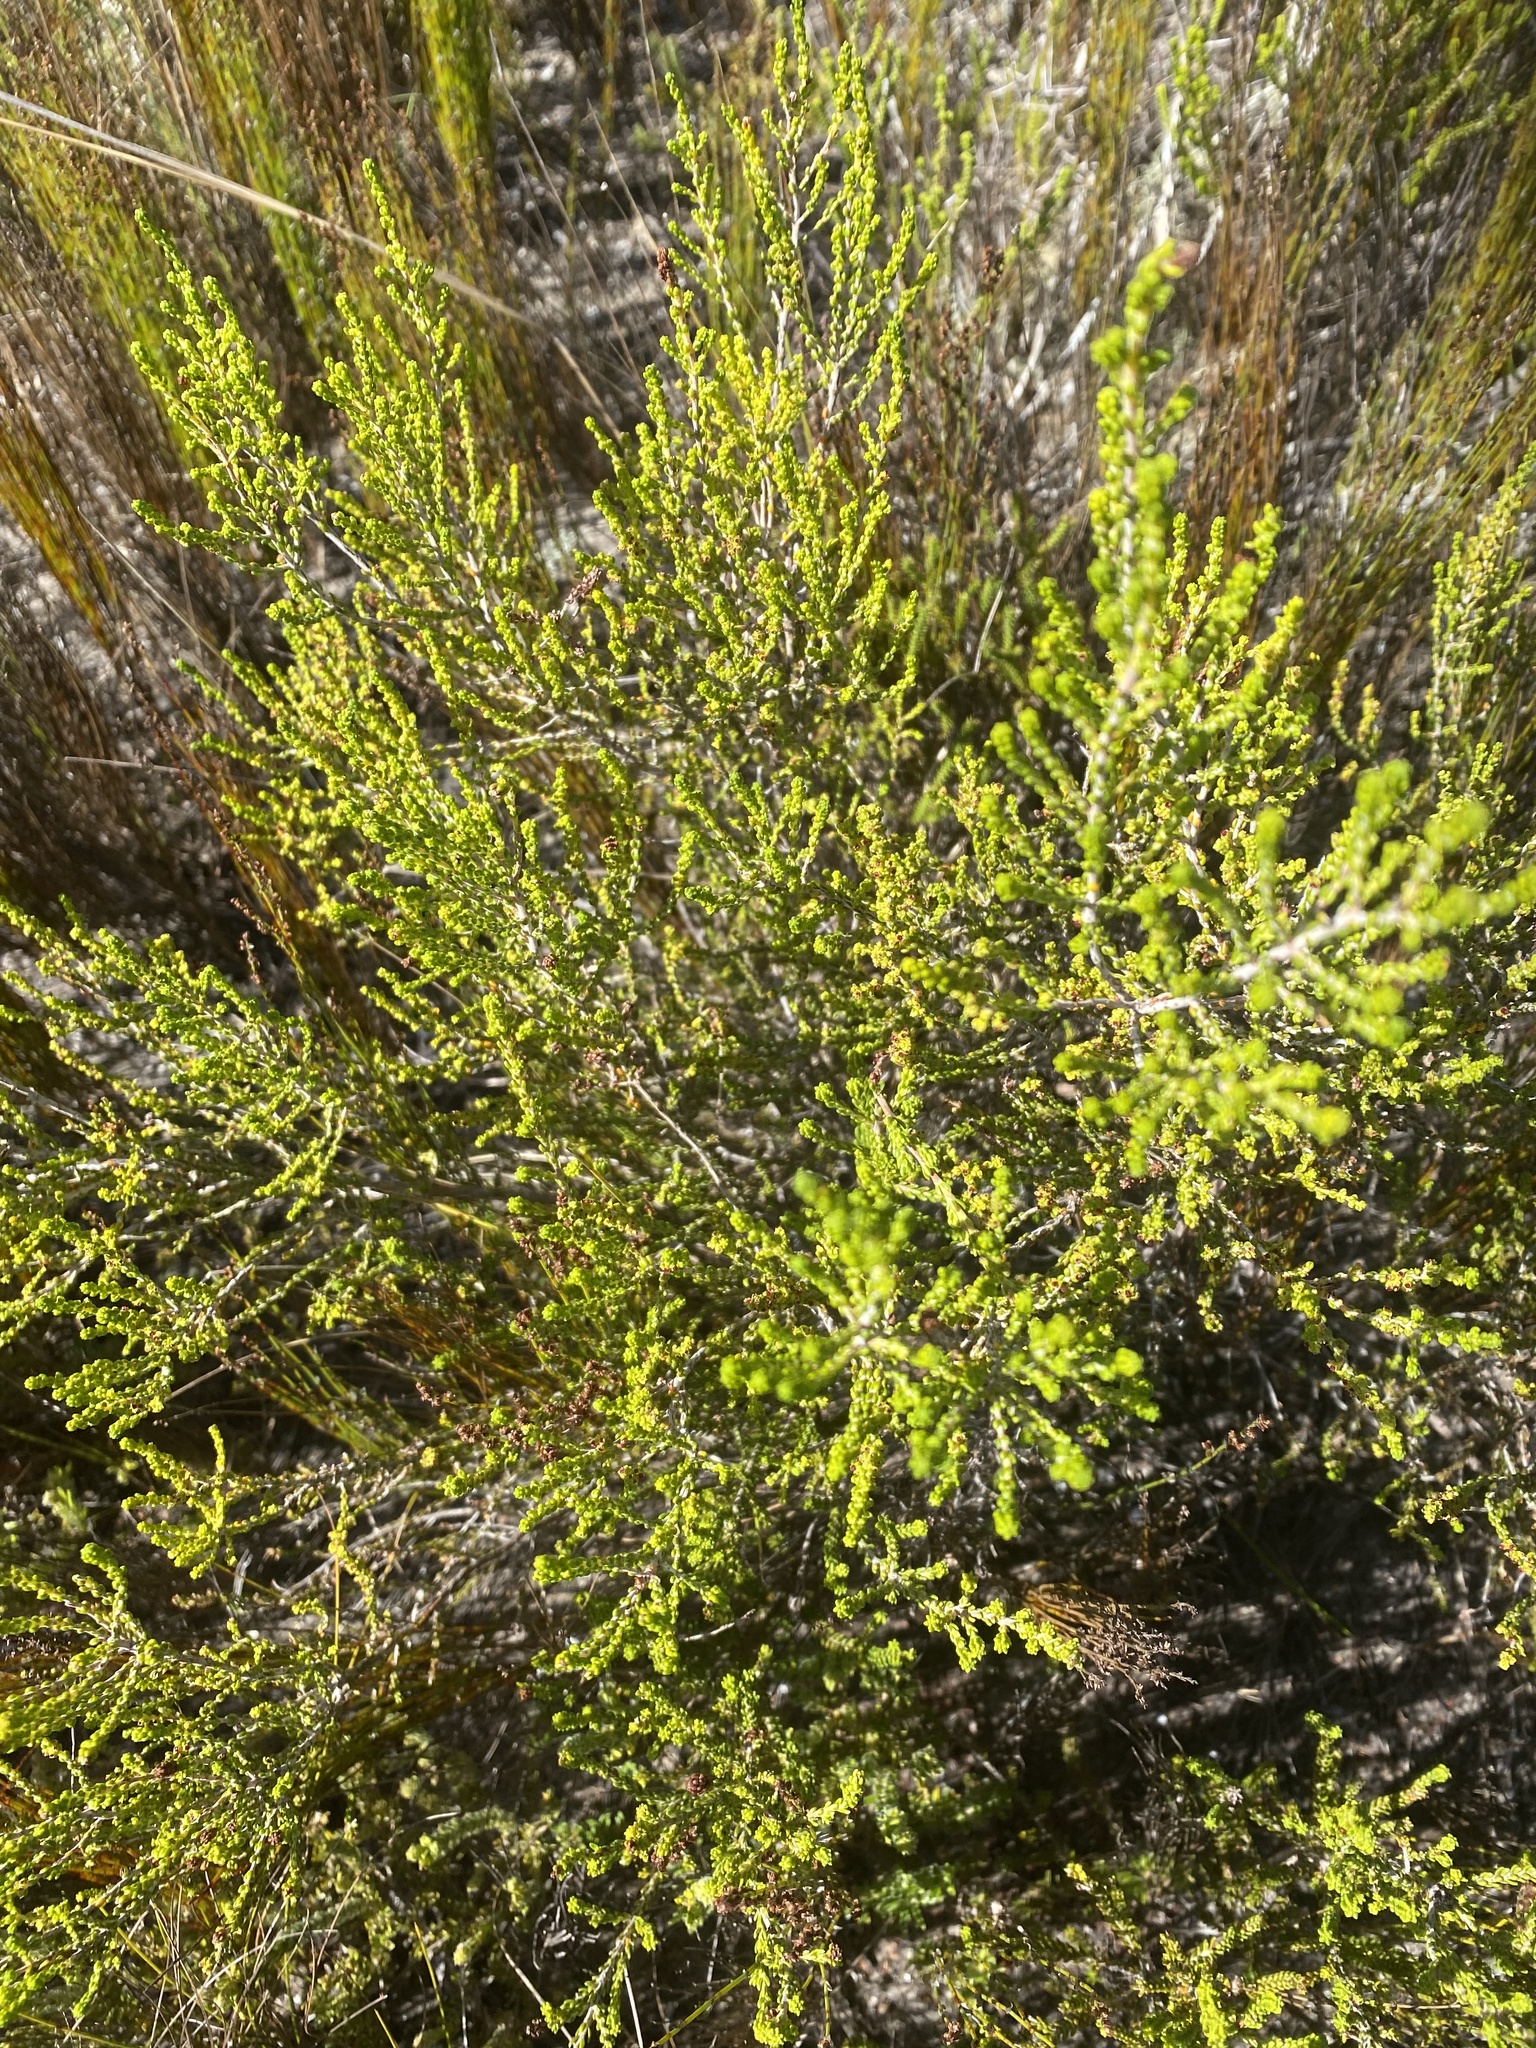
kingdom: Plantae
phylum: Tracheophyta
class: Magnoliopsida
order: Ericales
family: Ericaceae
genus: Erica
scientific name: Erica calcicola
